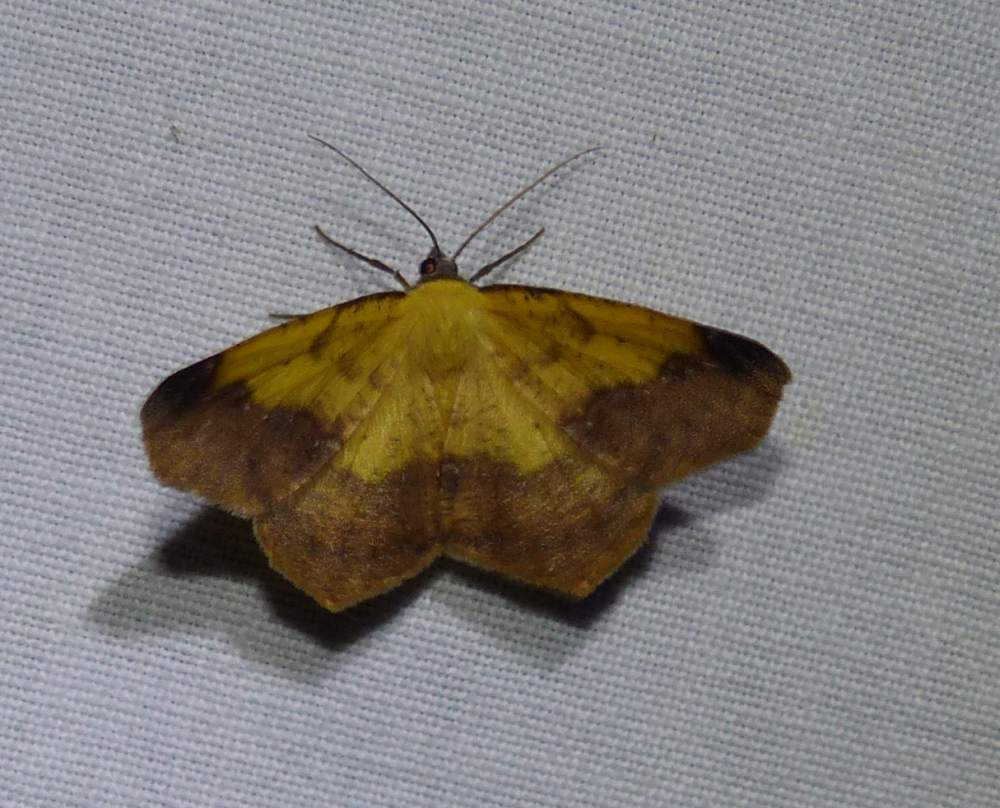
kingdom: Animalia
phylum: Arthropoda
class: Insecta
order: Lepidoptera
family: Geometridae
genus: Antepione
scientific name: Antepione thisoaria
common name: Variable antipione
